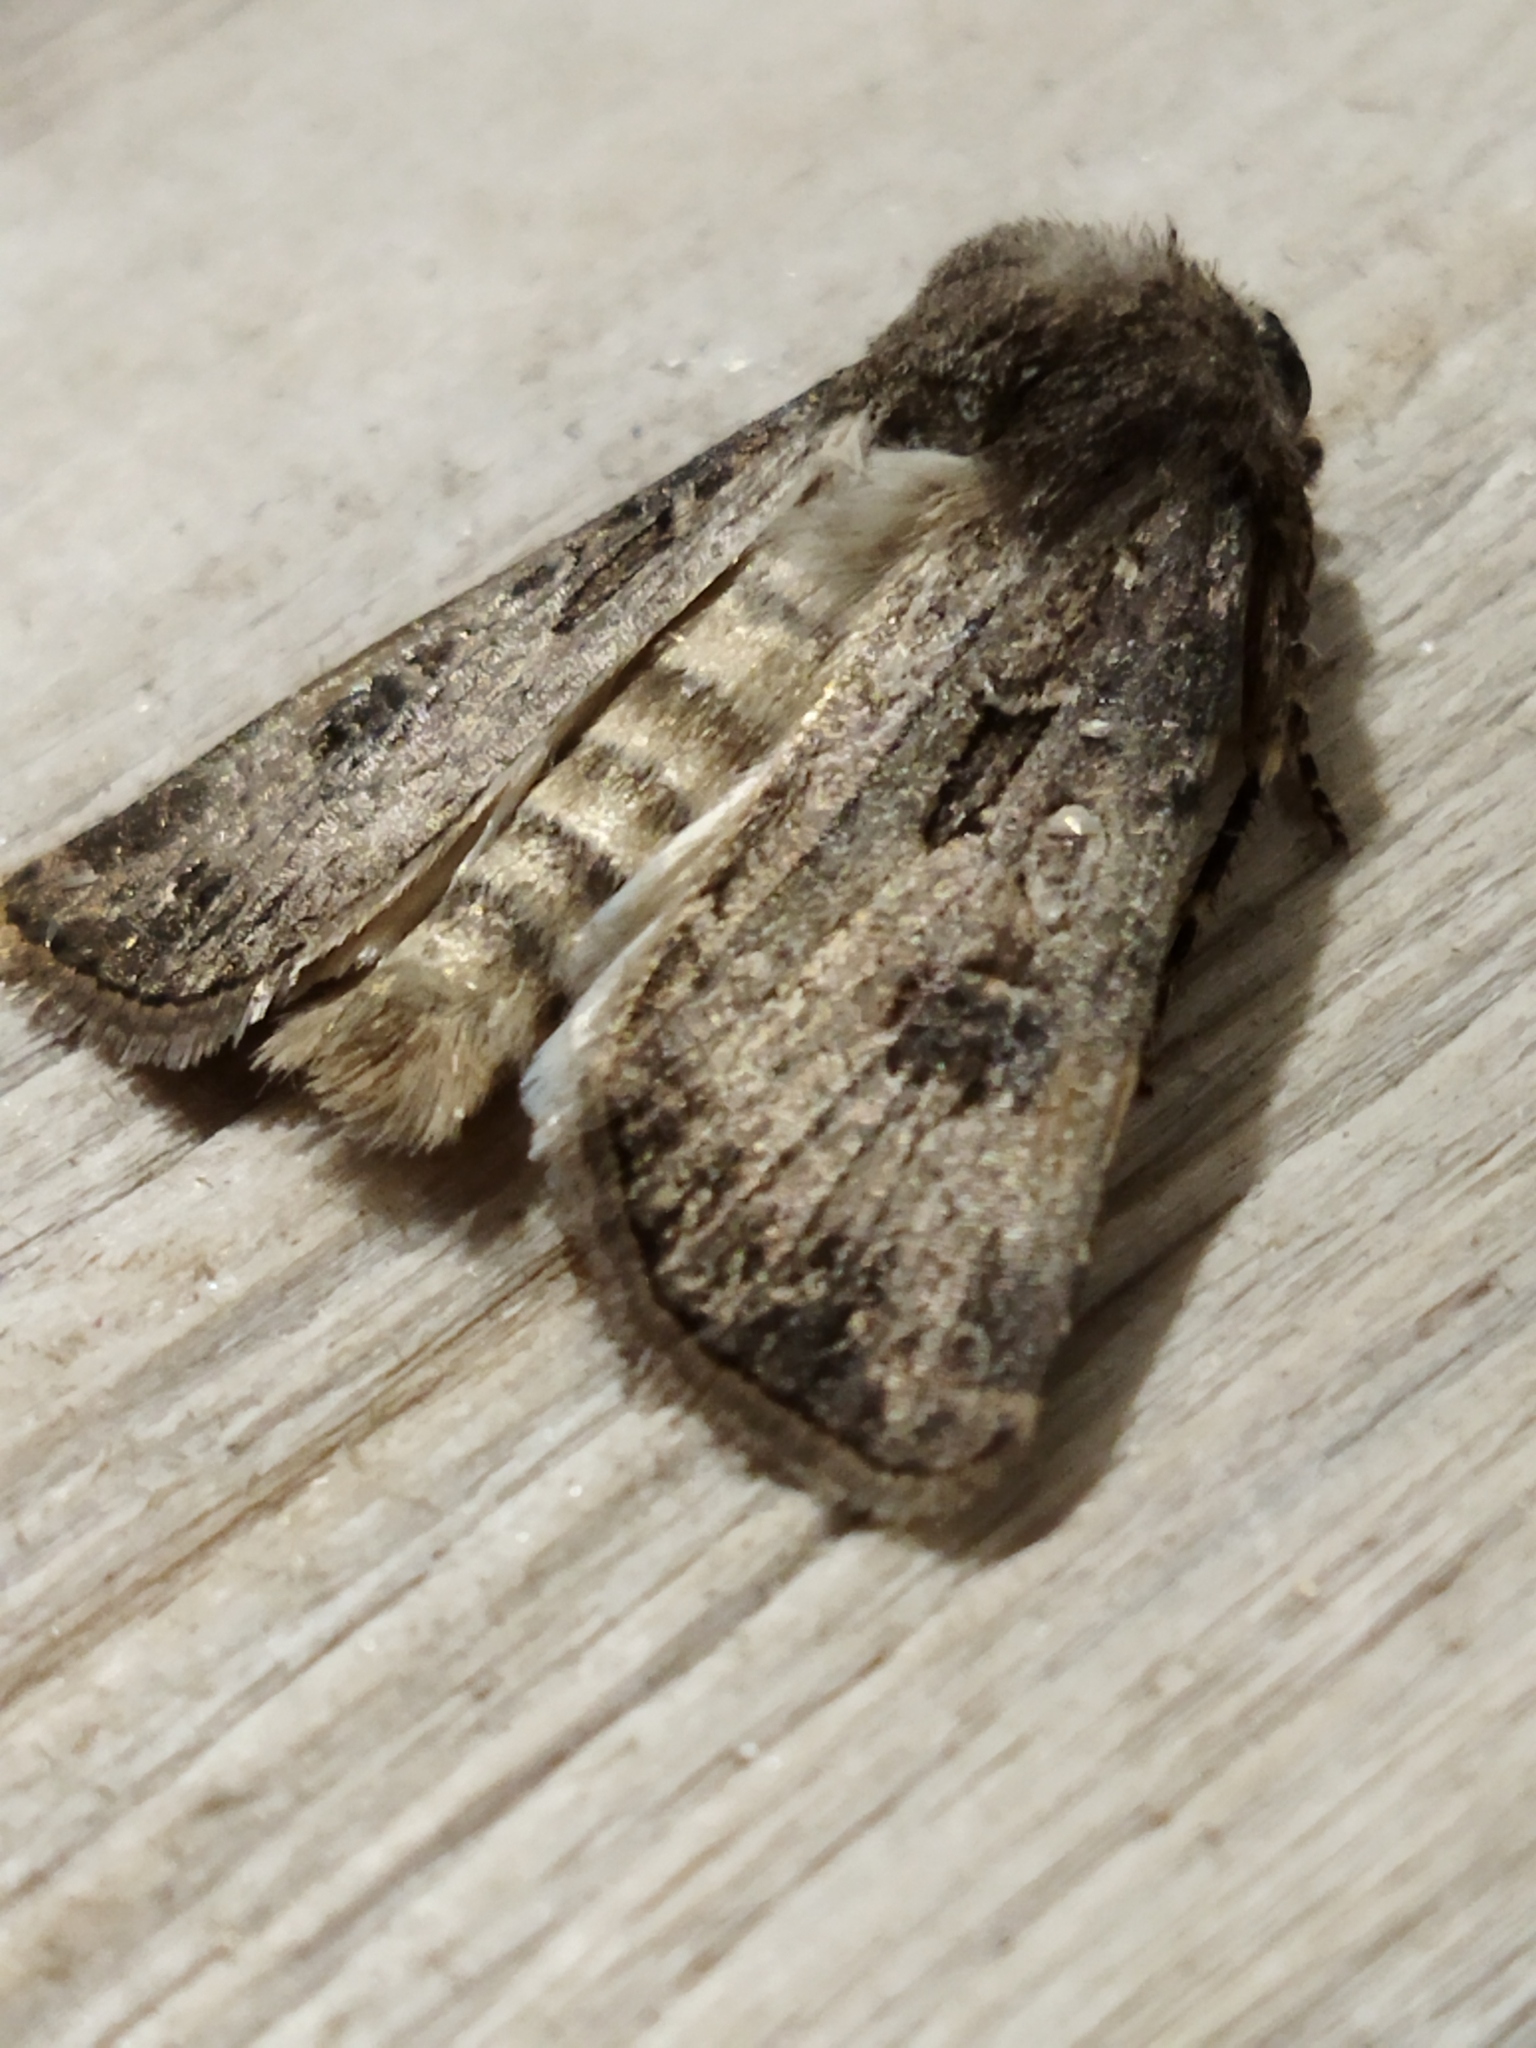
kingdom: Animalia
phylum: Arthropoda
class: Insecta
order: Lepidoptera
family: Noctuidae
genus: Agrotis
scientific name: Agrotis bigramma
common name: Great dart
